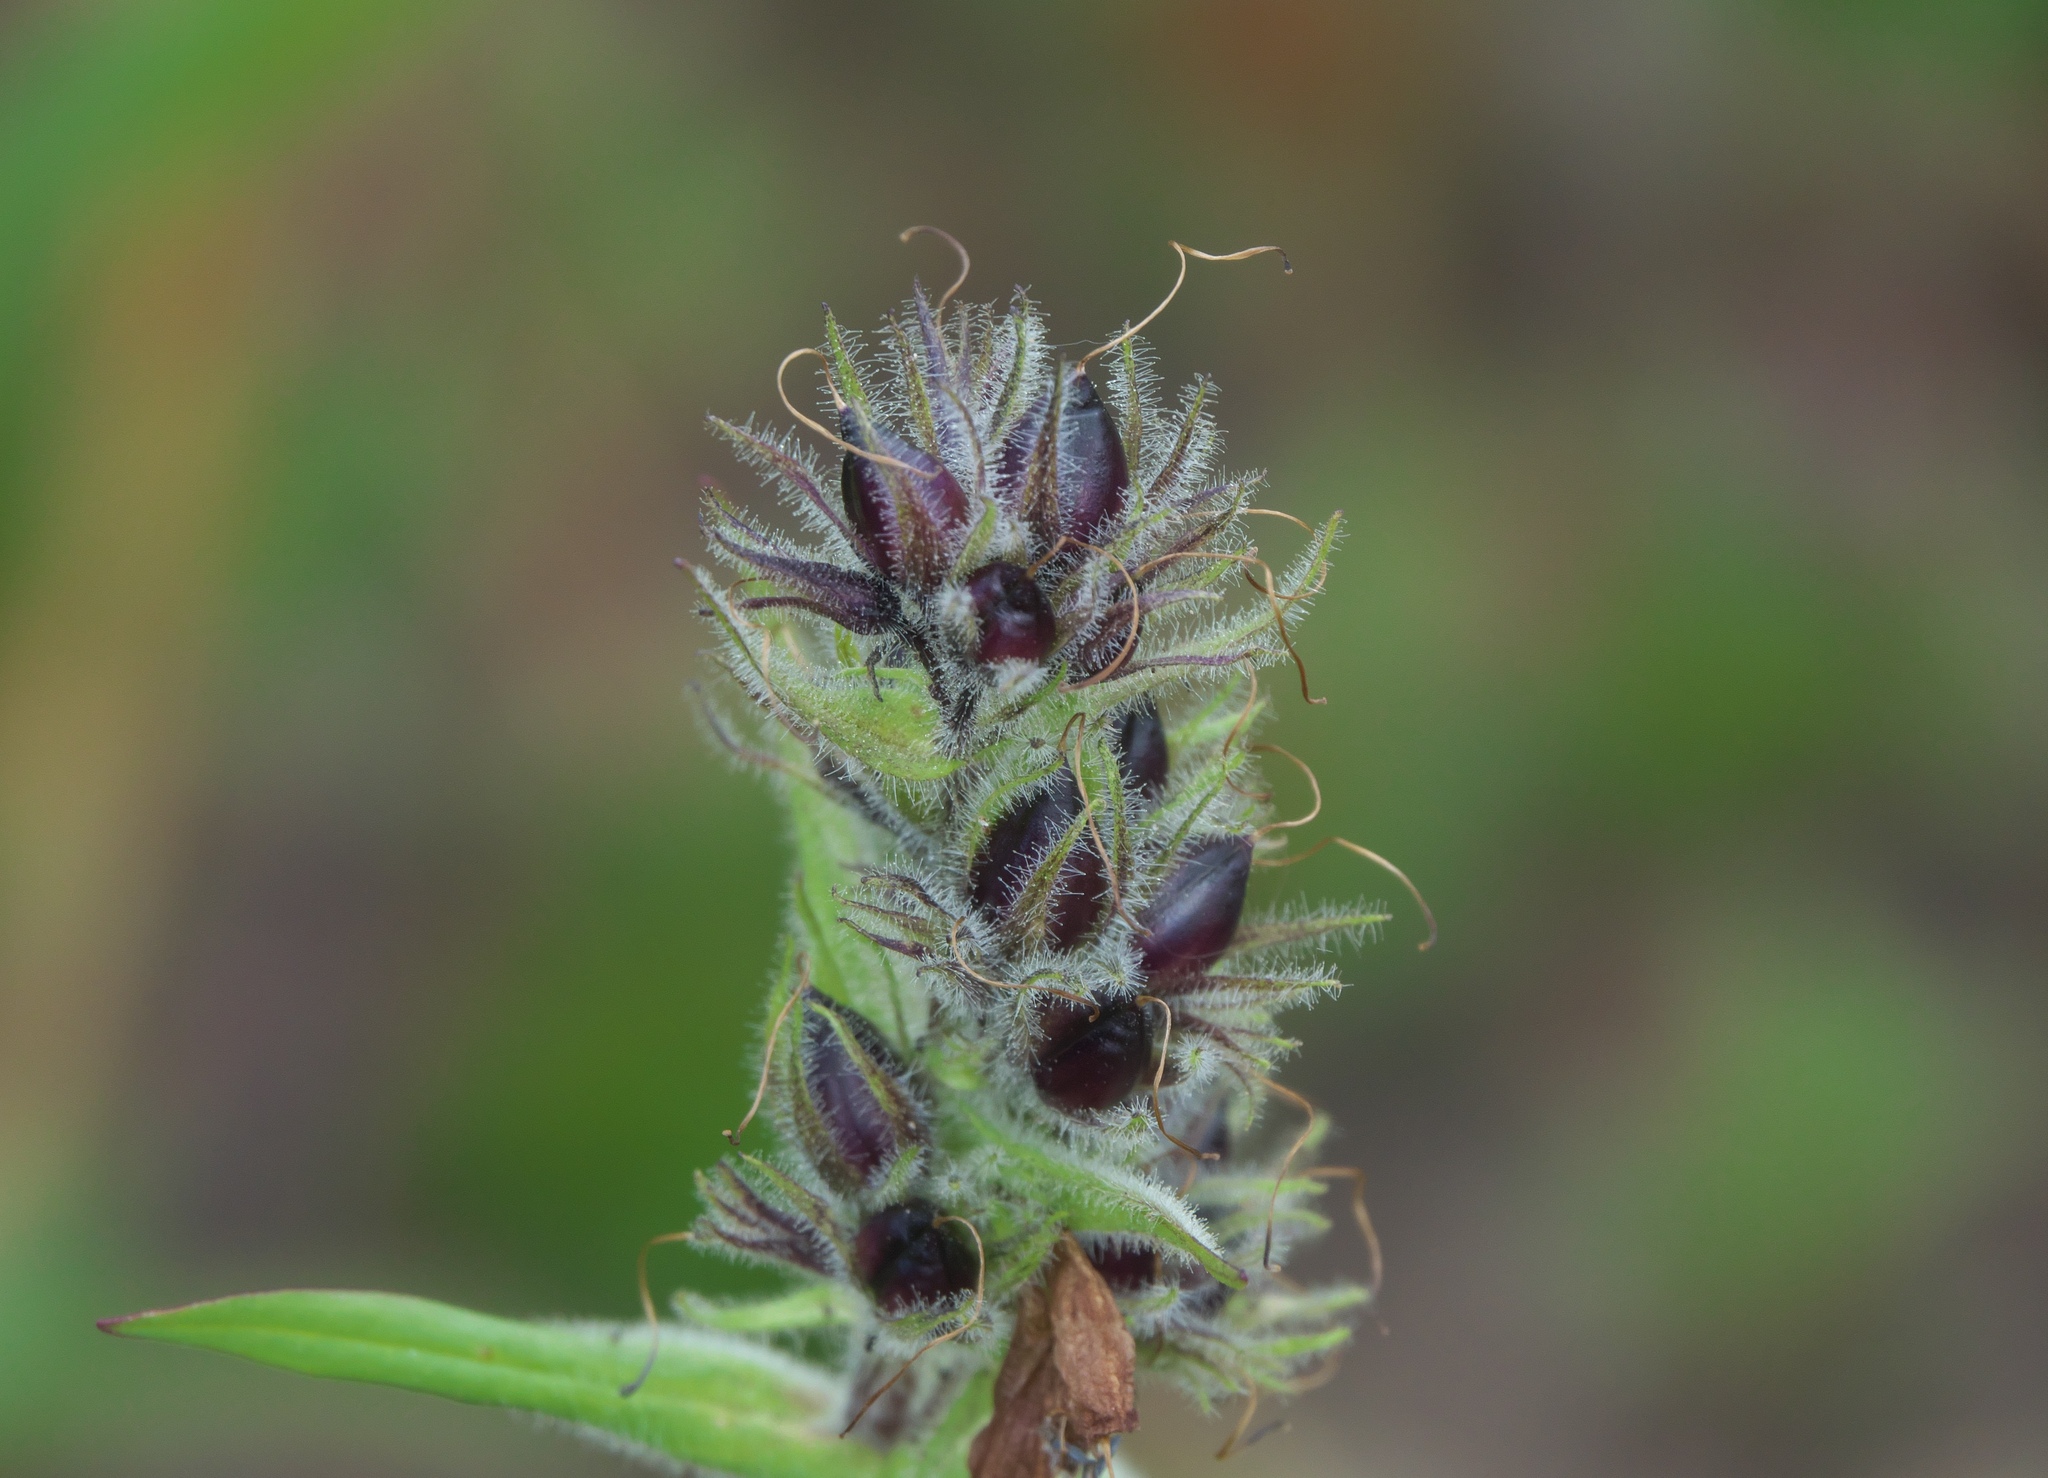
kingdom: Plantae
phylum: Tracheophyta
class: Magnoliopsida
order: Lamiales
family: Plantaginaceae
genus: Penstemon
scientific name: Penstemon whippleanus
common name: Whipple's penstemon
